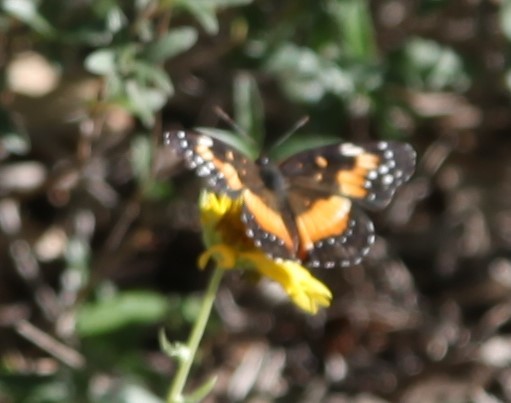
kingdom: Animalia
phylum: Arthropoda
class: Insecta
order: Lepidoptera
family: Nymphalidae
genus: Chlosyne
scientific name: Chlosyne lacinia
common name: Bordered patch
